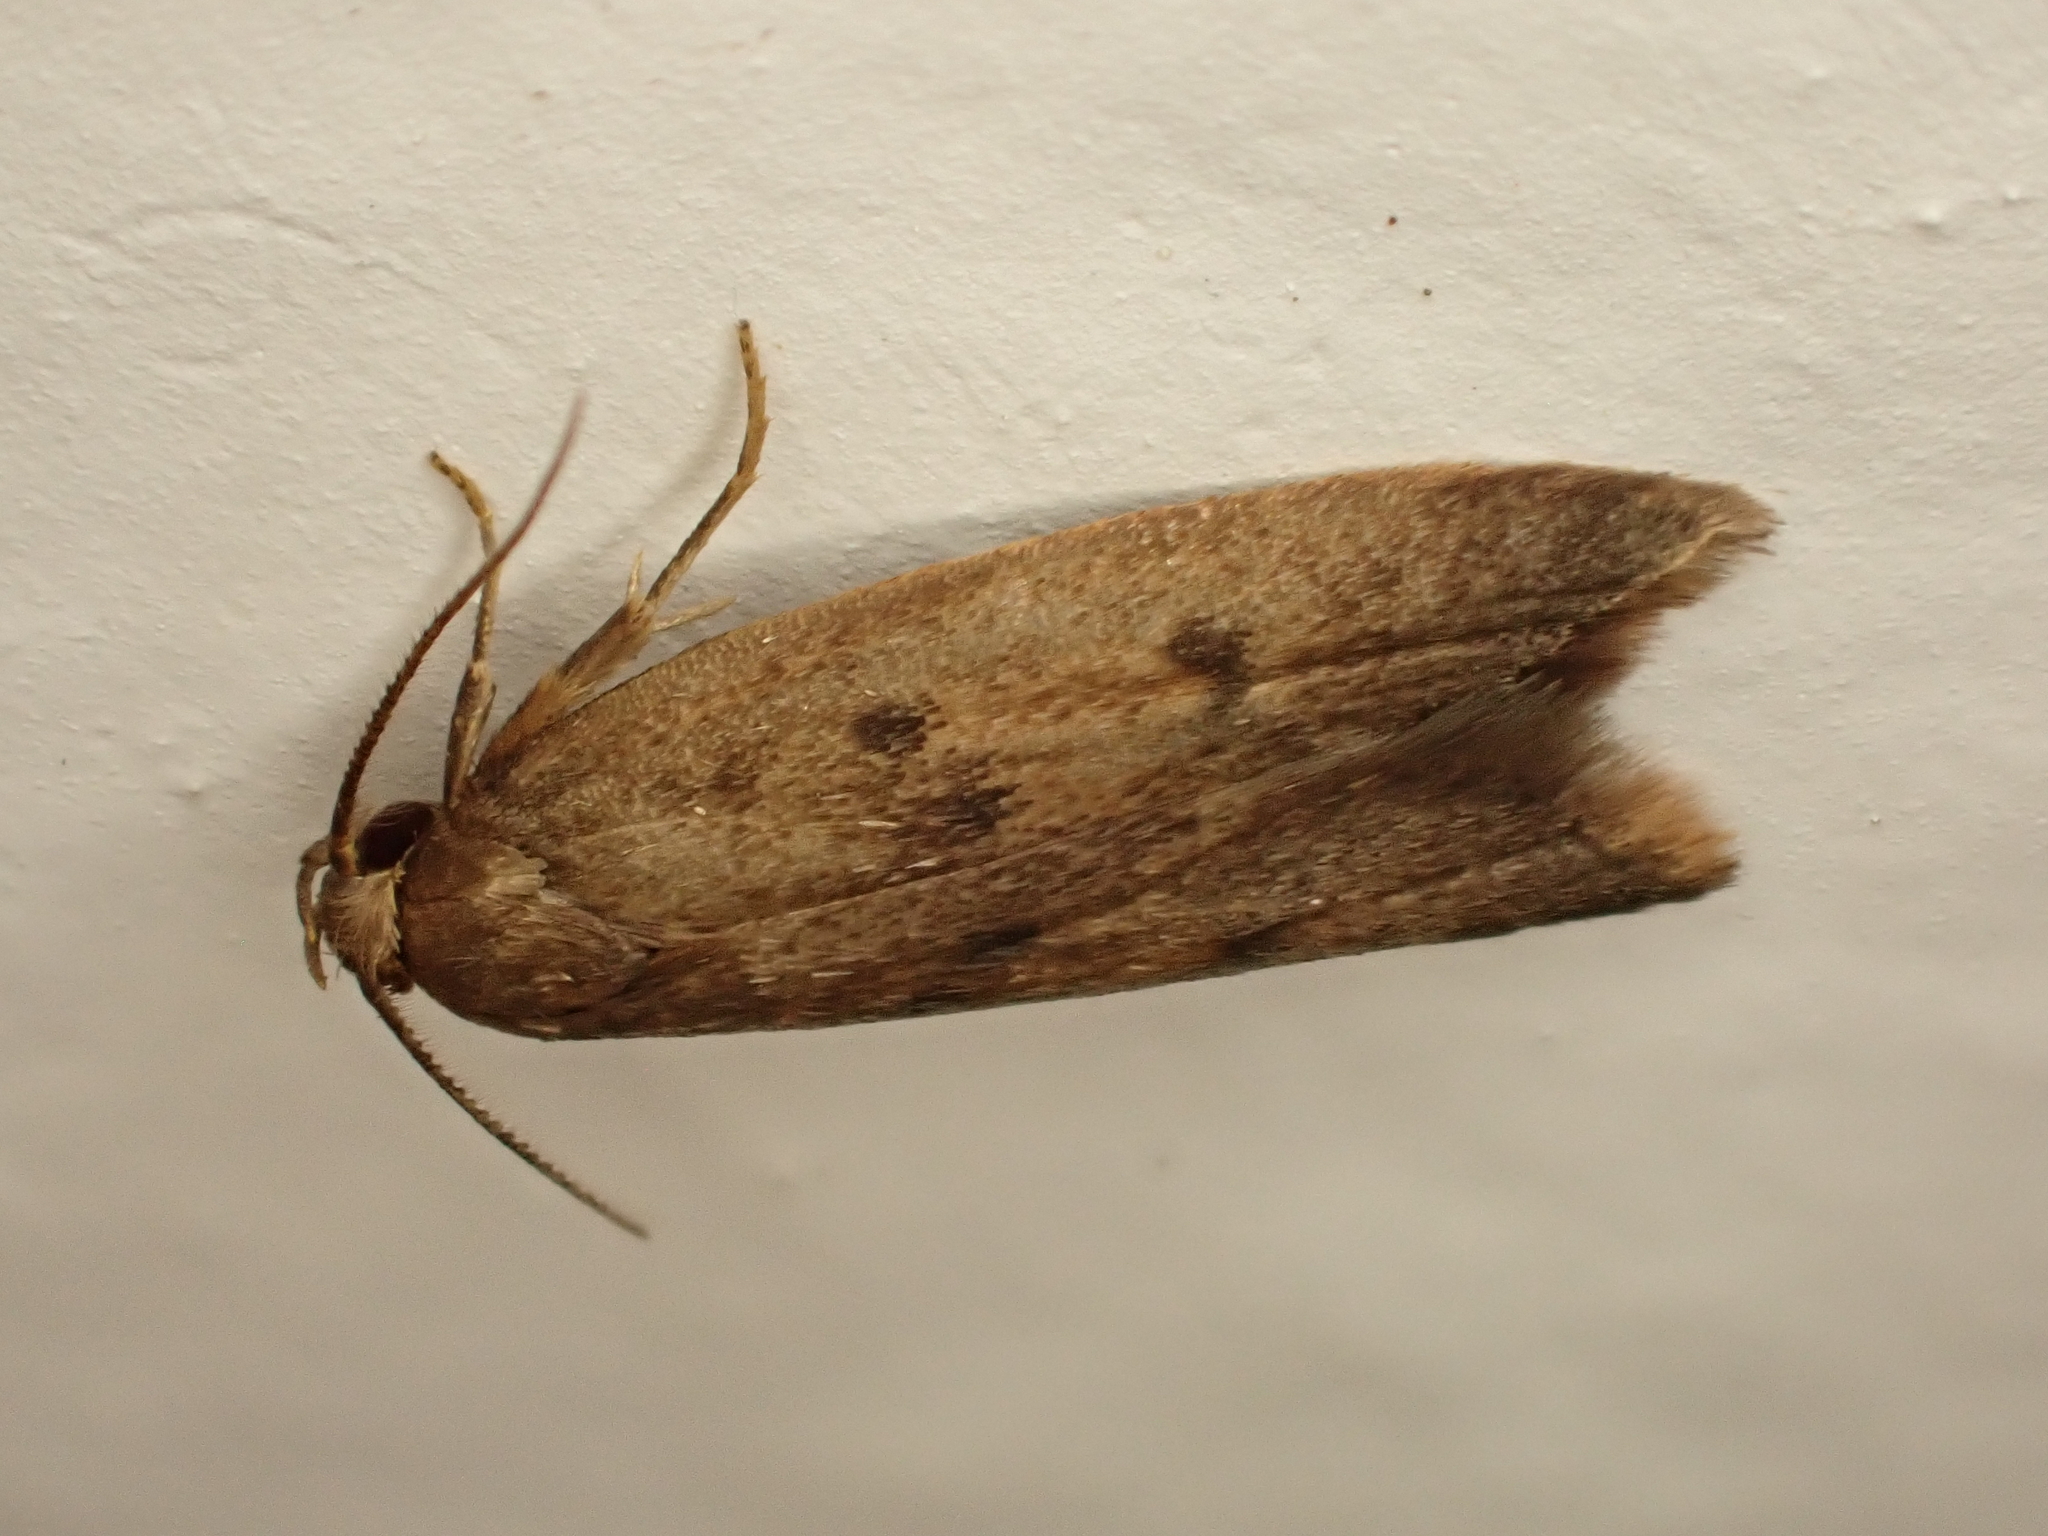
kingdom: Animalia
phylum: Arthropoda
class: Insecta
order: Lepidoptera
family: Oecophoridae
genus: Tachystola
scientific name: Tachystola acroxantha
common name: Ruddy streak
